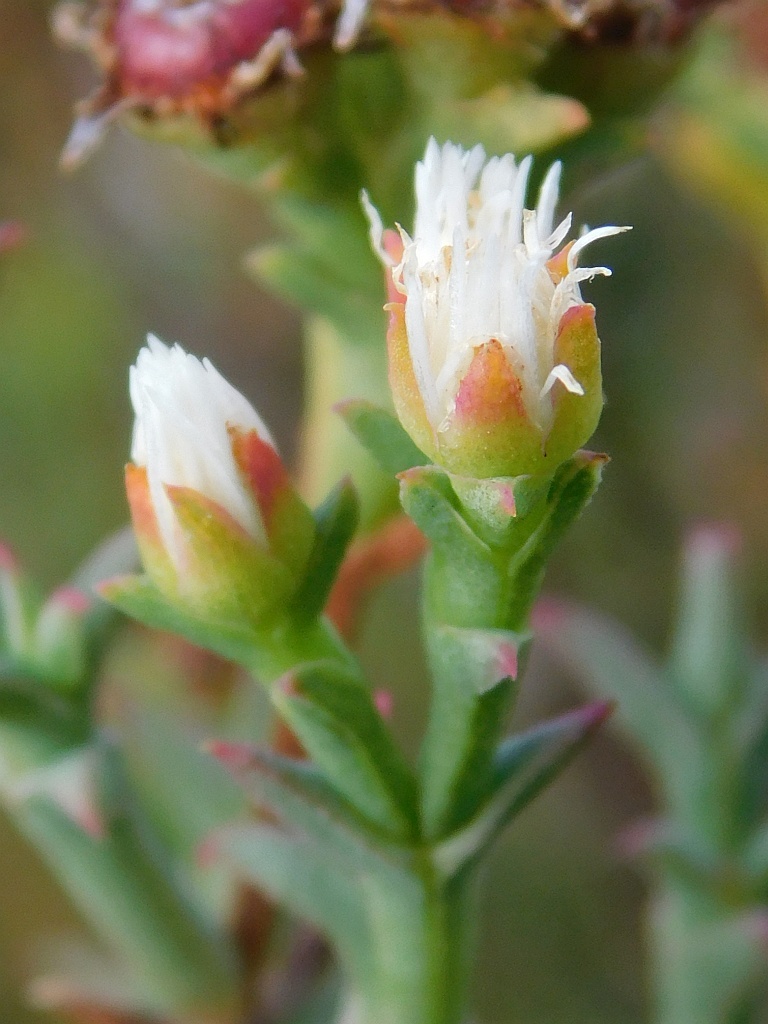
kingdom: Plantae
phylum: Tracheophyta
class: Magnoliopsida
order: Caryophyllales
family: Aizoaceae
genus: Ruschia
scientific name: Ruschia tenella
